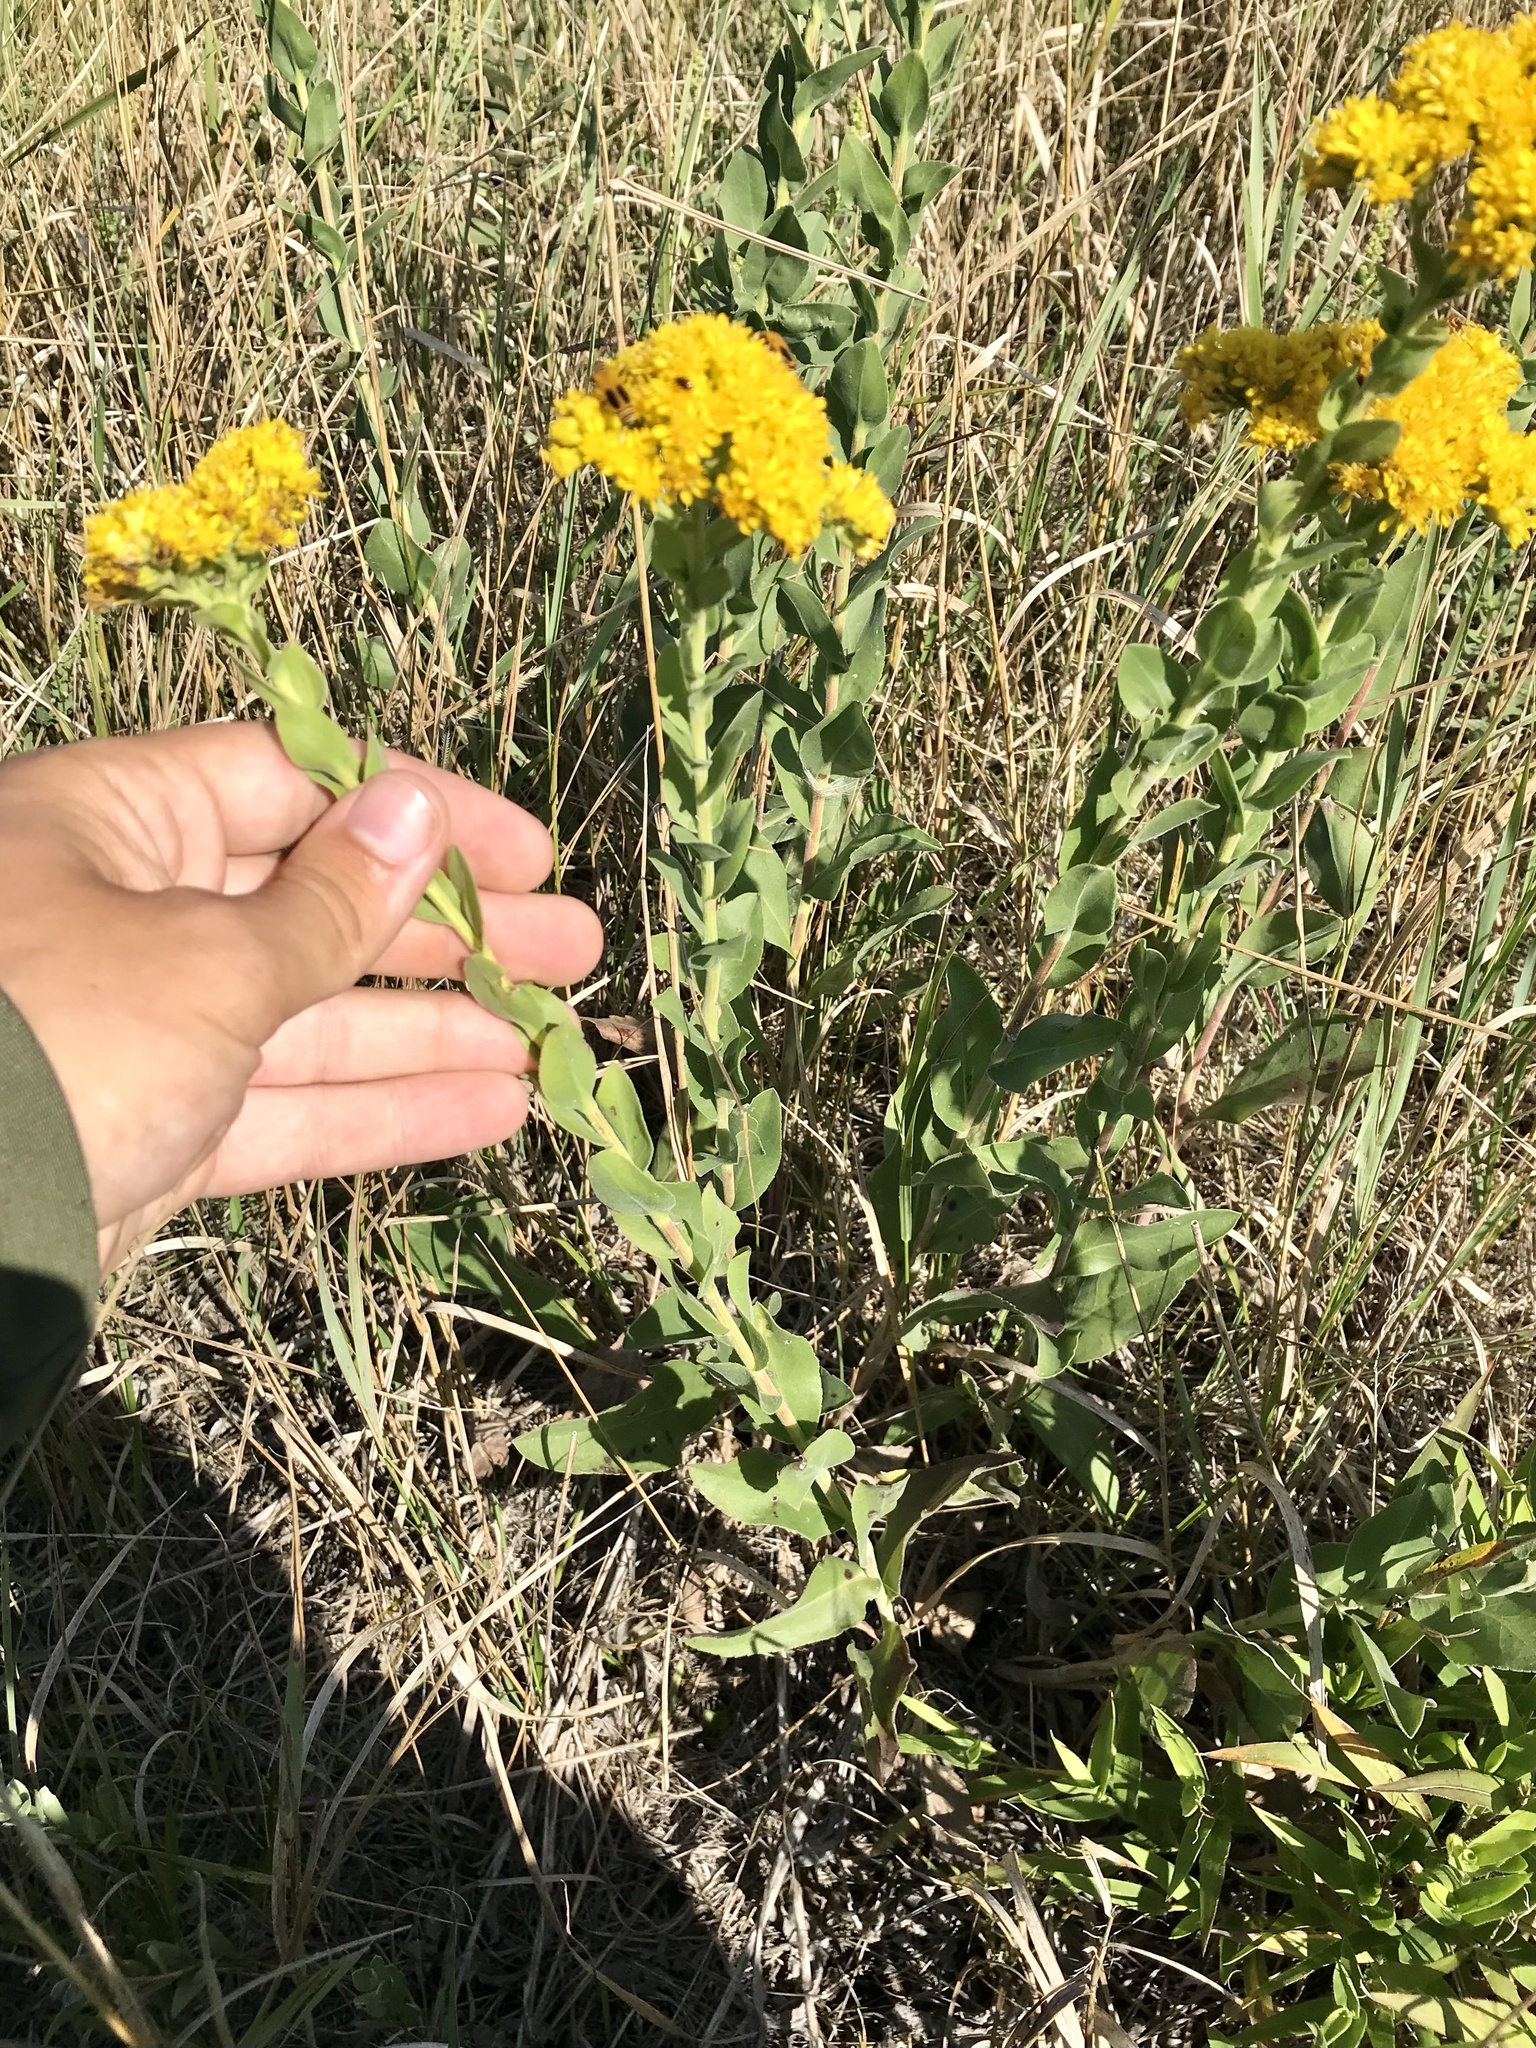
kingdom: Plantae
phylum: Tracheophyta
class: Magnoliopsida
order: Asterales
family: Asteraceae
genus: Solidago
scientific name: Solidago rigida
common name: Rigid goldenrod
